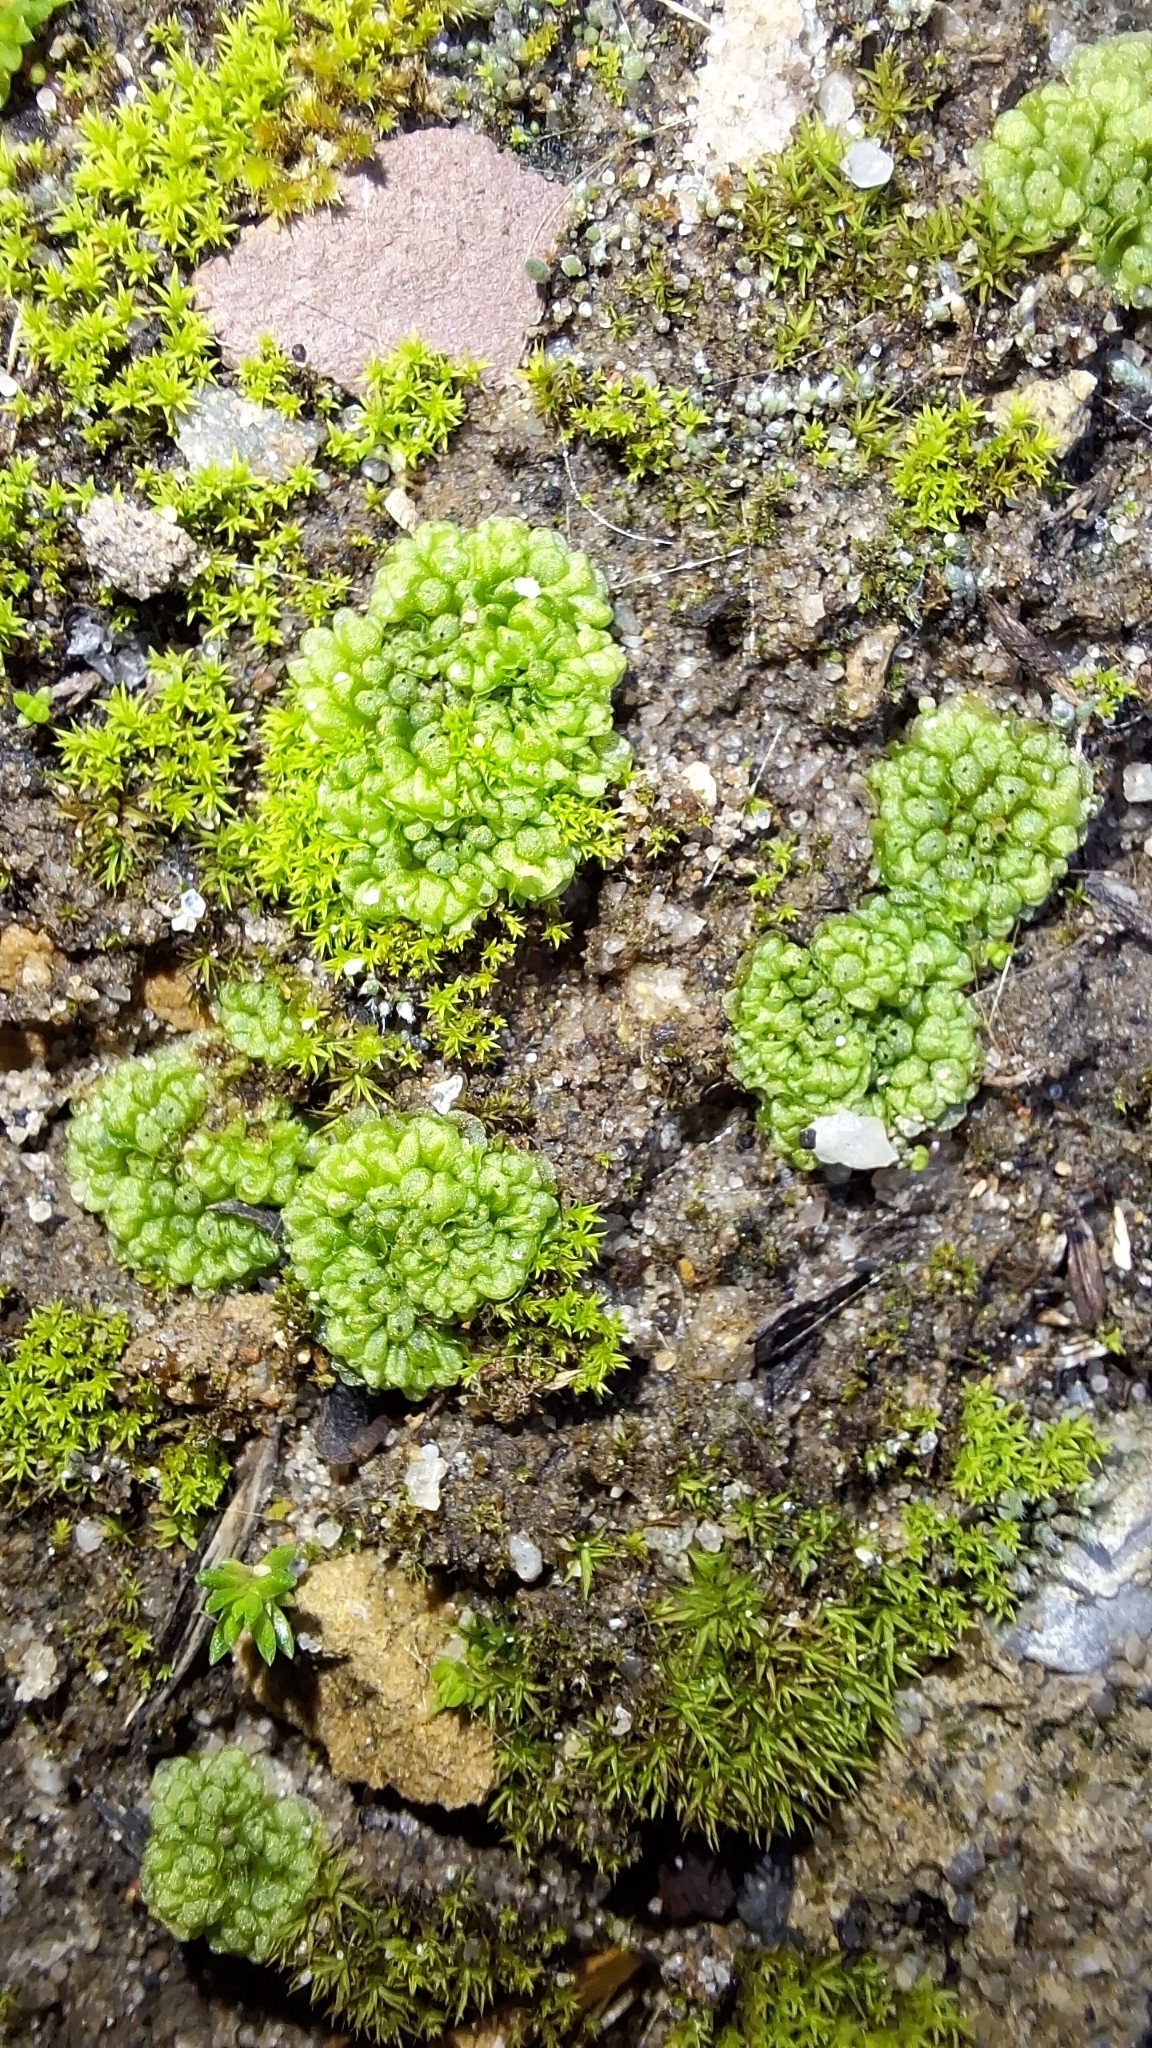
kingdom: Plantae
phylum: Marchantiophyta
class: Marchantiopsida
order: Sphaerocarpales
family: Sphaerocarpaceae
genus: Sphaerocarpos
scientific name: Sphaerocarpos texanus
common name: Texas balloonwort
